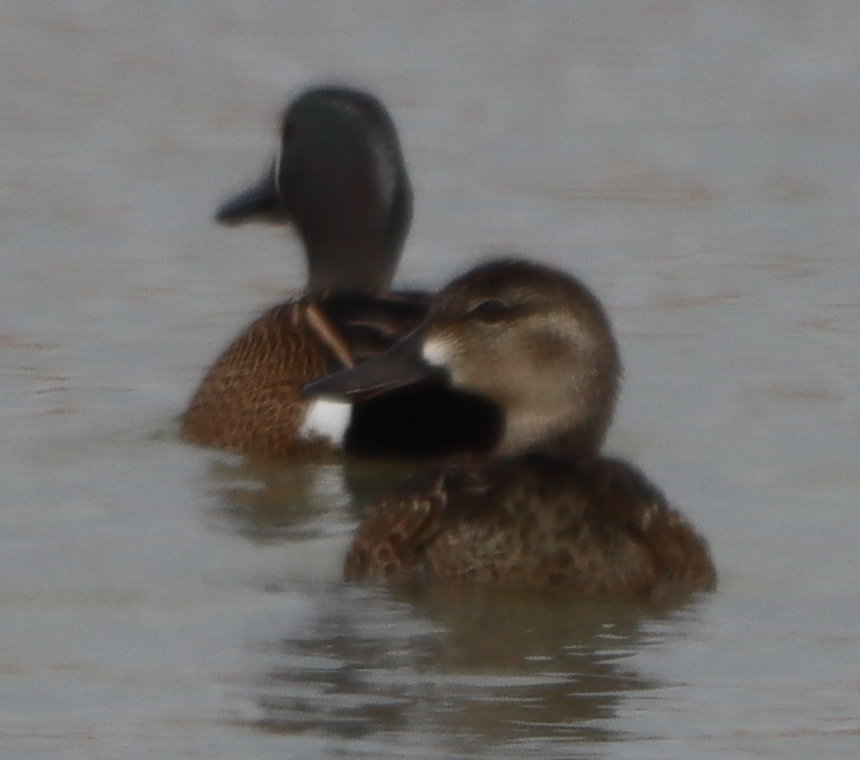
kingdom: Animalia
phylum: Chordata
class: Aves
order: Anseriformes
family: Anatidae
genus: Spatula
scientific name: Spatula discors
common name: Blue-winged teal
